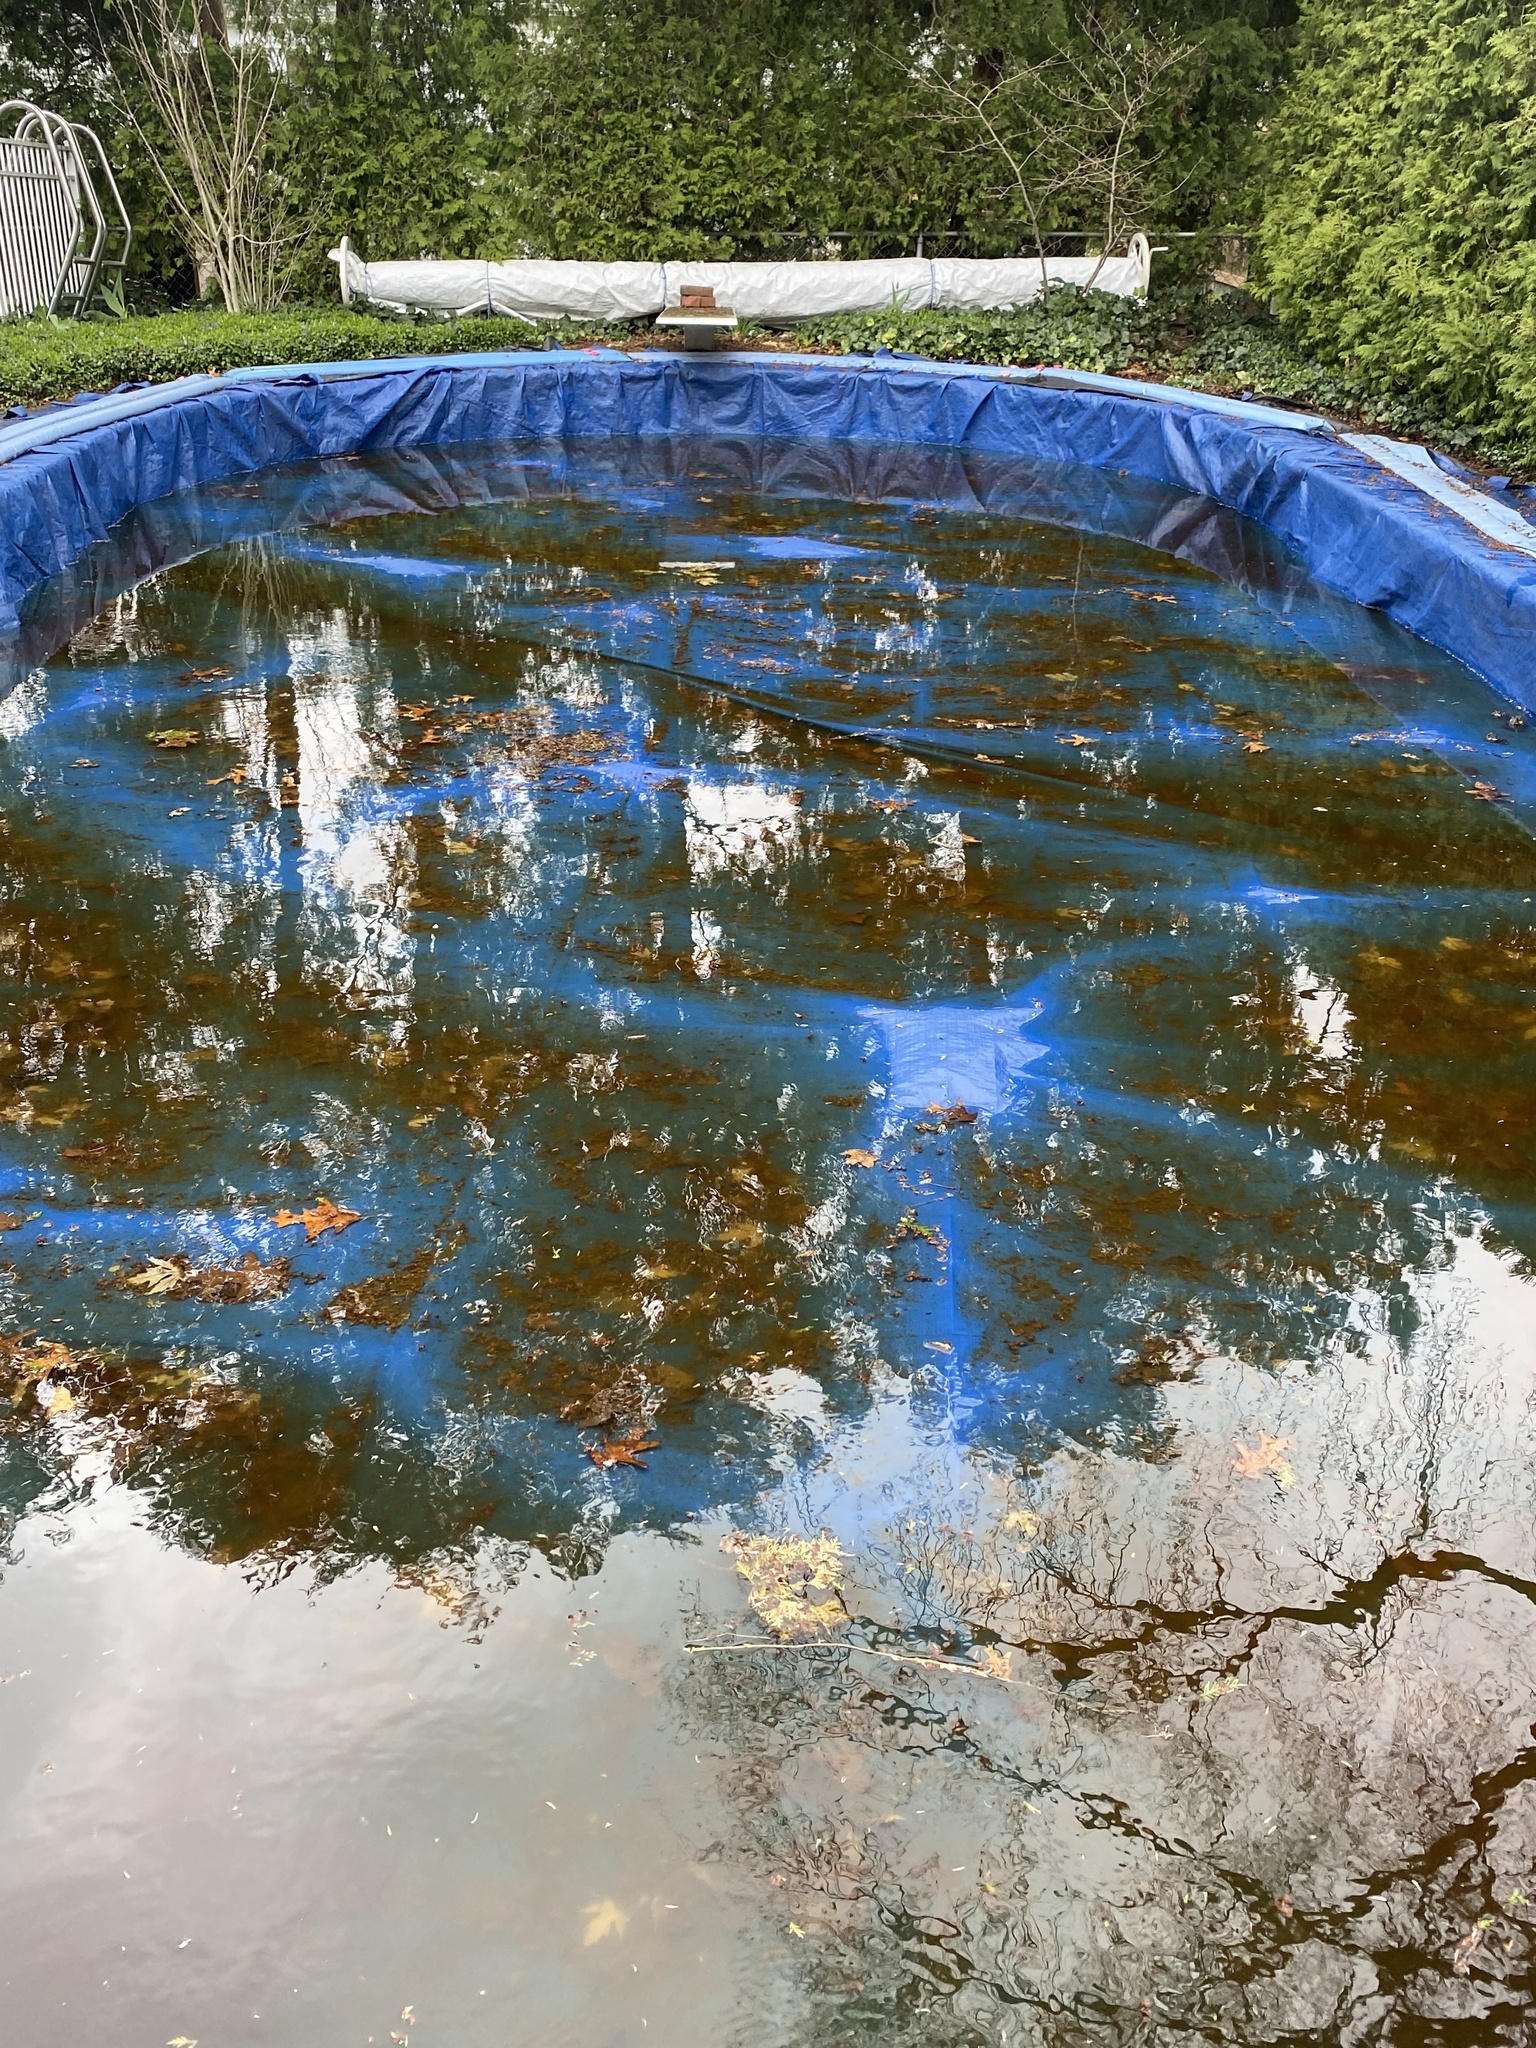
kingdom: Animalia
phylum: Chordata
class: Amphibia
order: Anura
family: Bufonidae
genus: Anaxyrus
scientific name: Anaxyrus americanus
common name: American toad
